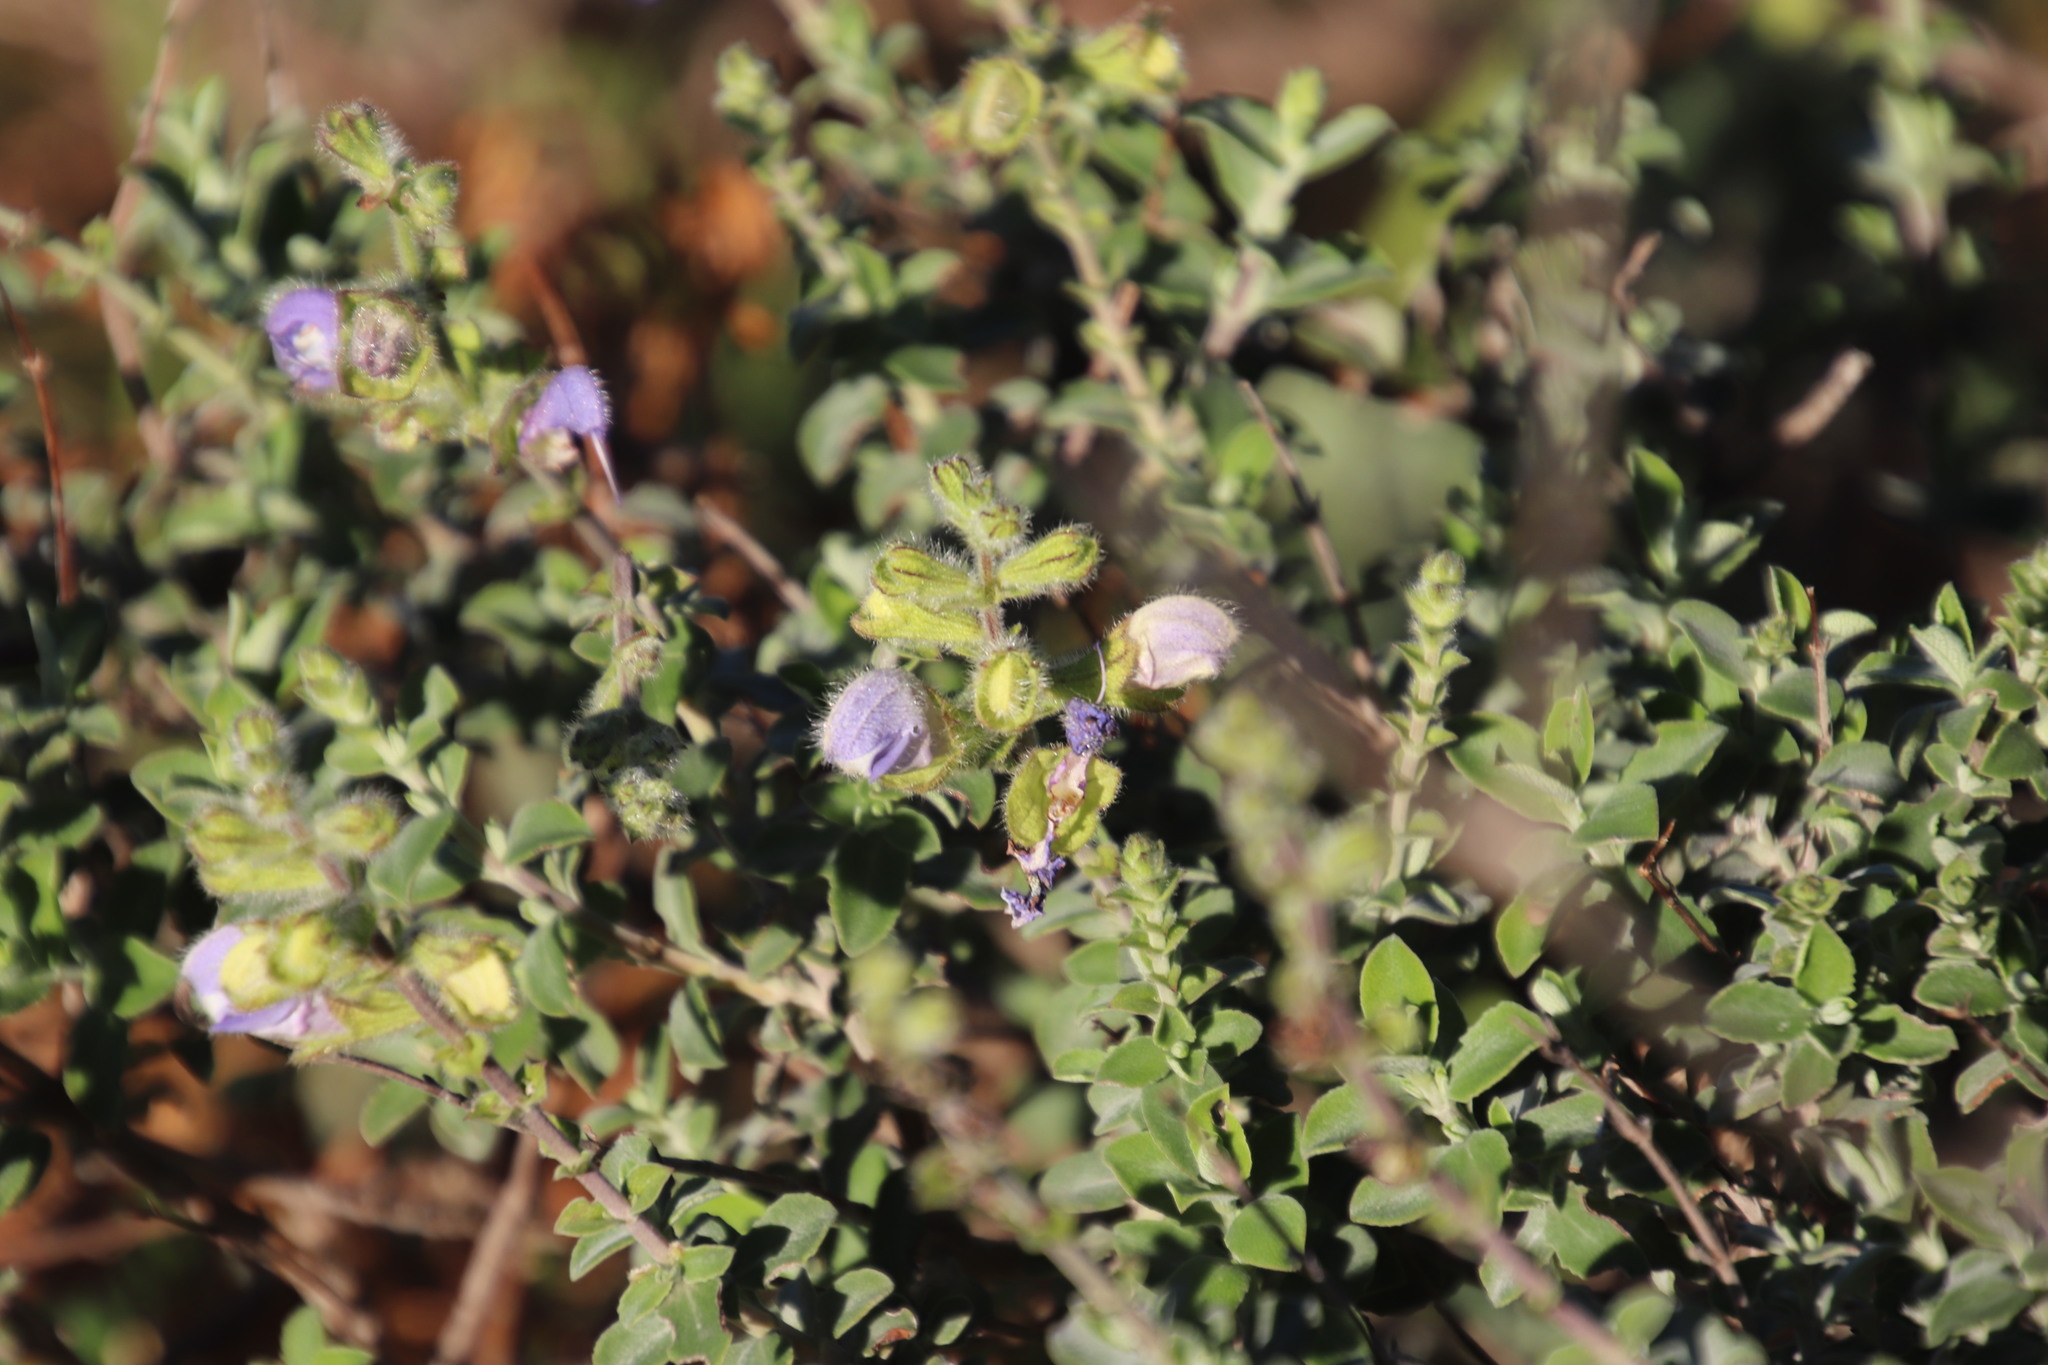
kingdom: Plantae
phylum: Tracheophyta
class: Magnoliopsida
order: Lamiales
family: Lamiaceae
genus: Salvia
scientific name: Salvia africana
